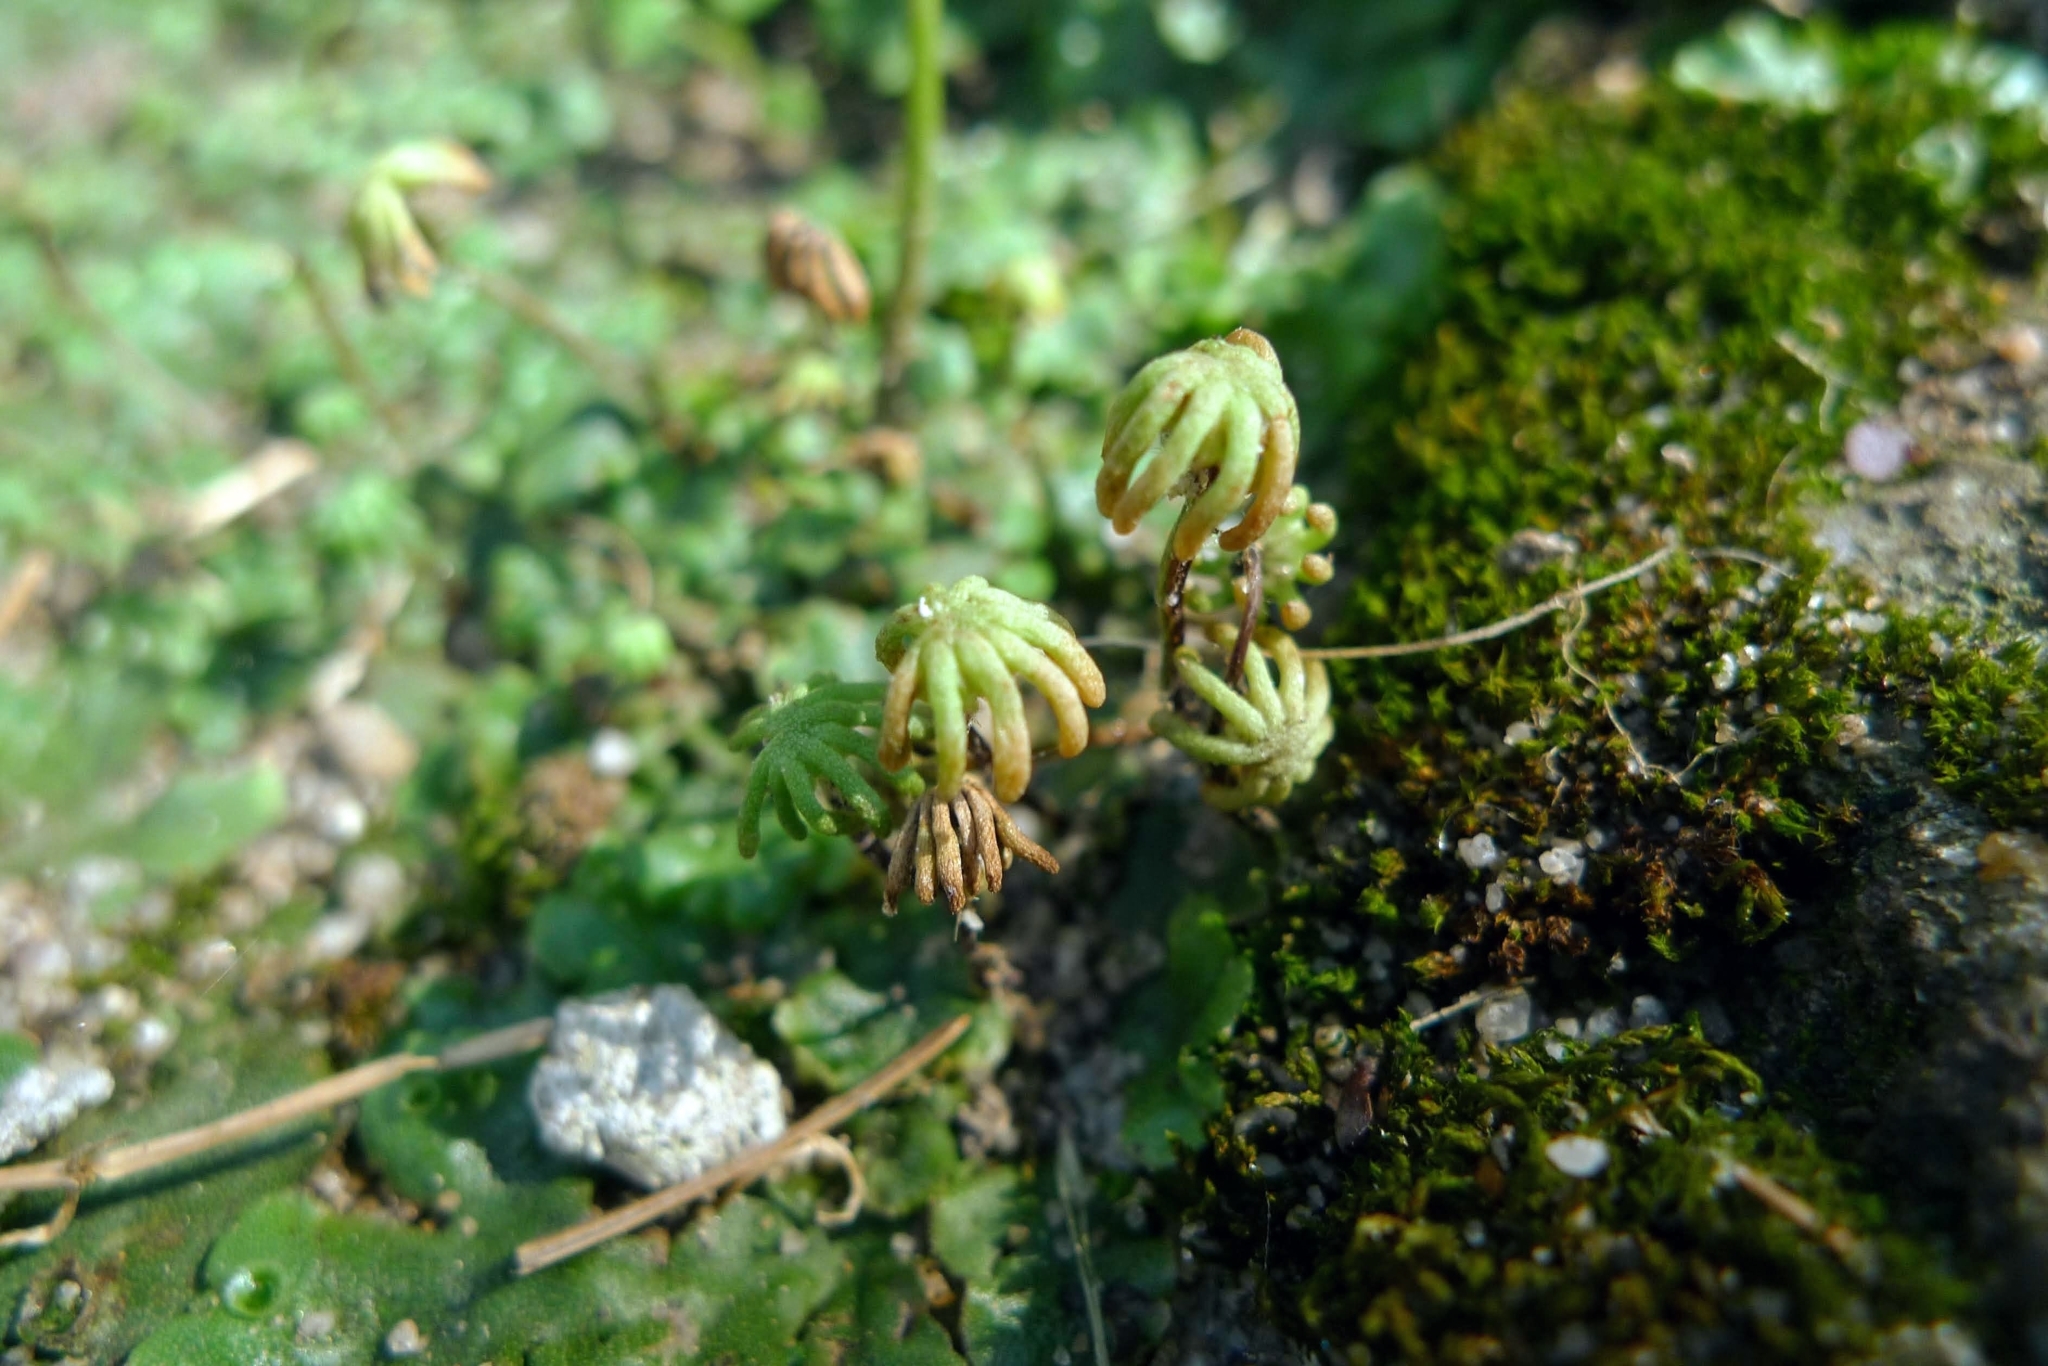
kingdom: Plantae
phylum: Marchantiophyta
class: Marchantiopsida
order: Marchantiales
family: Marchantiaceae
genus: Marchantia
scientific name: Marchantia polymorpha
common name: Common liverwort
